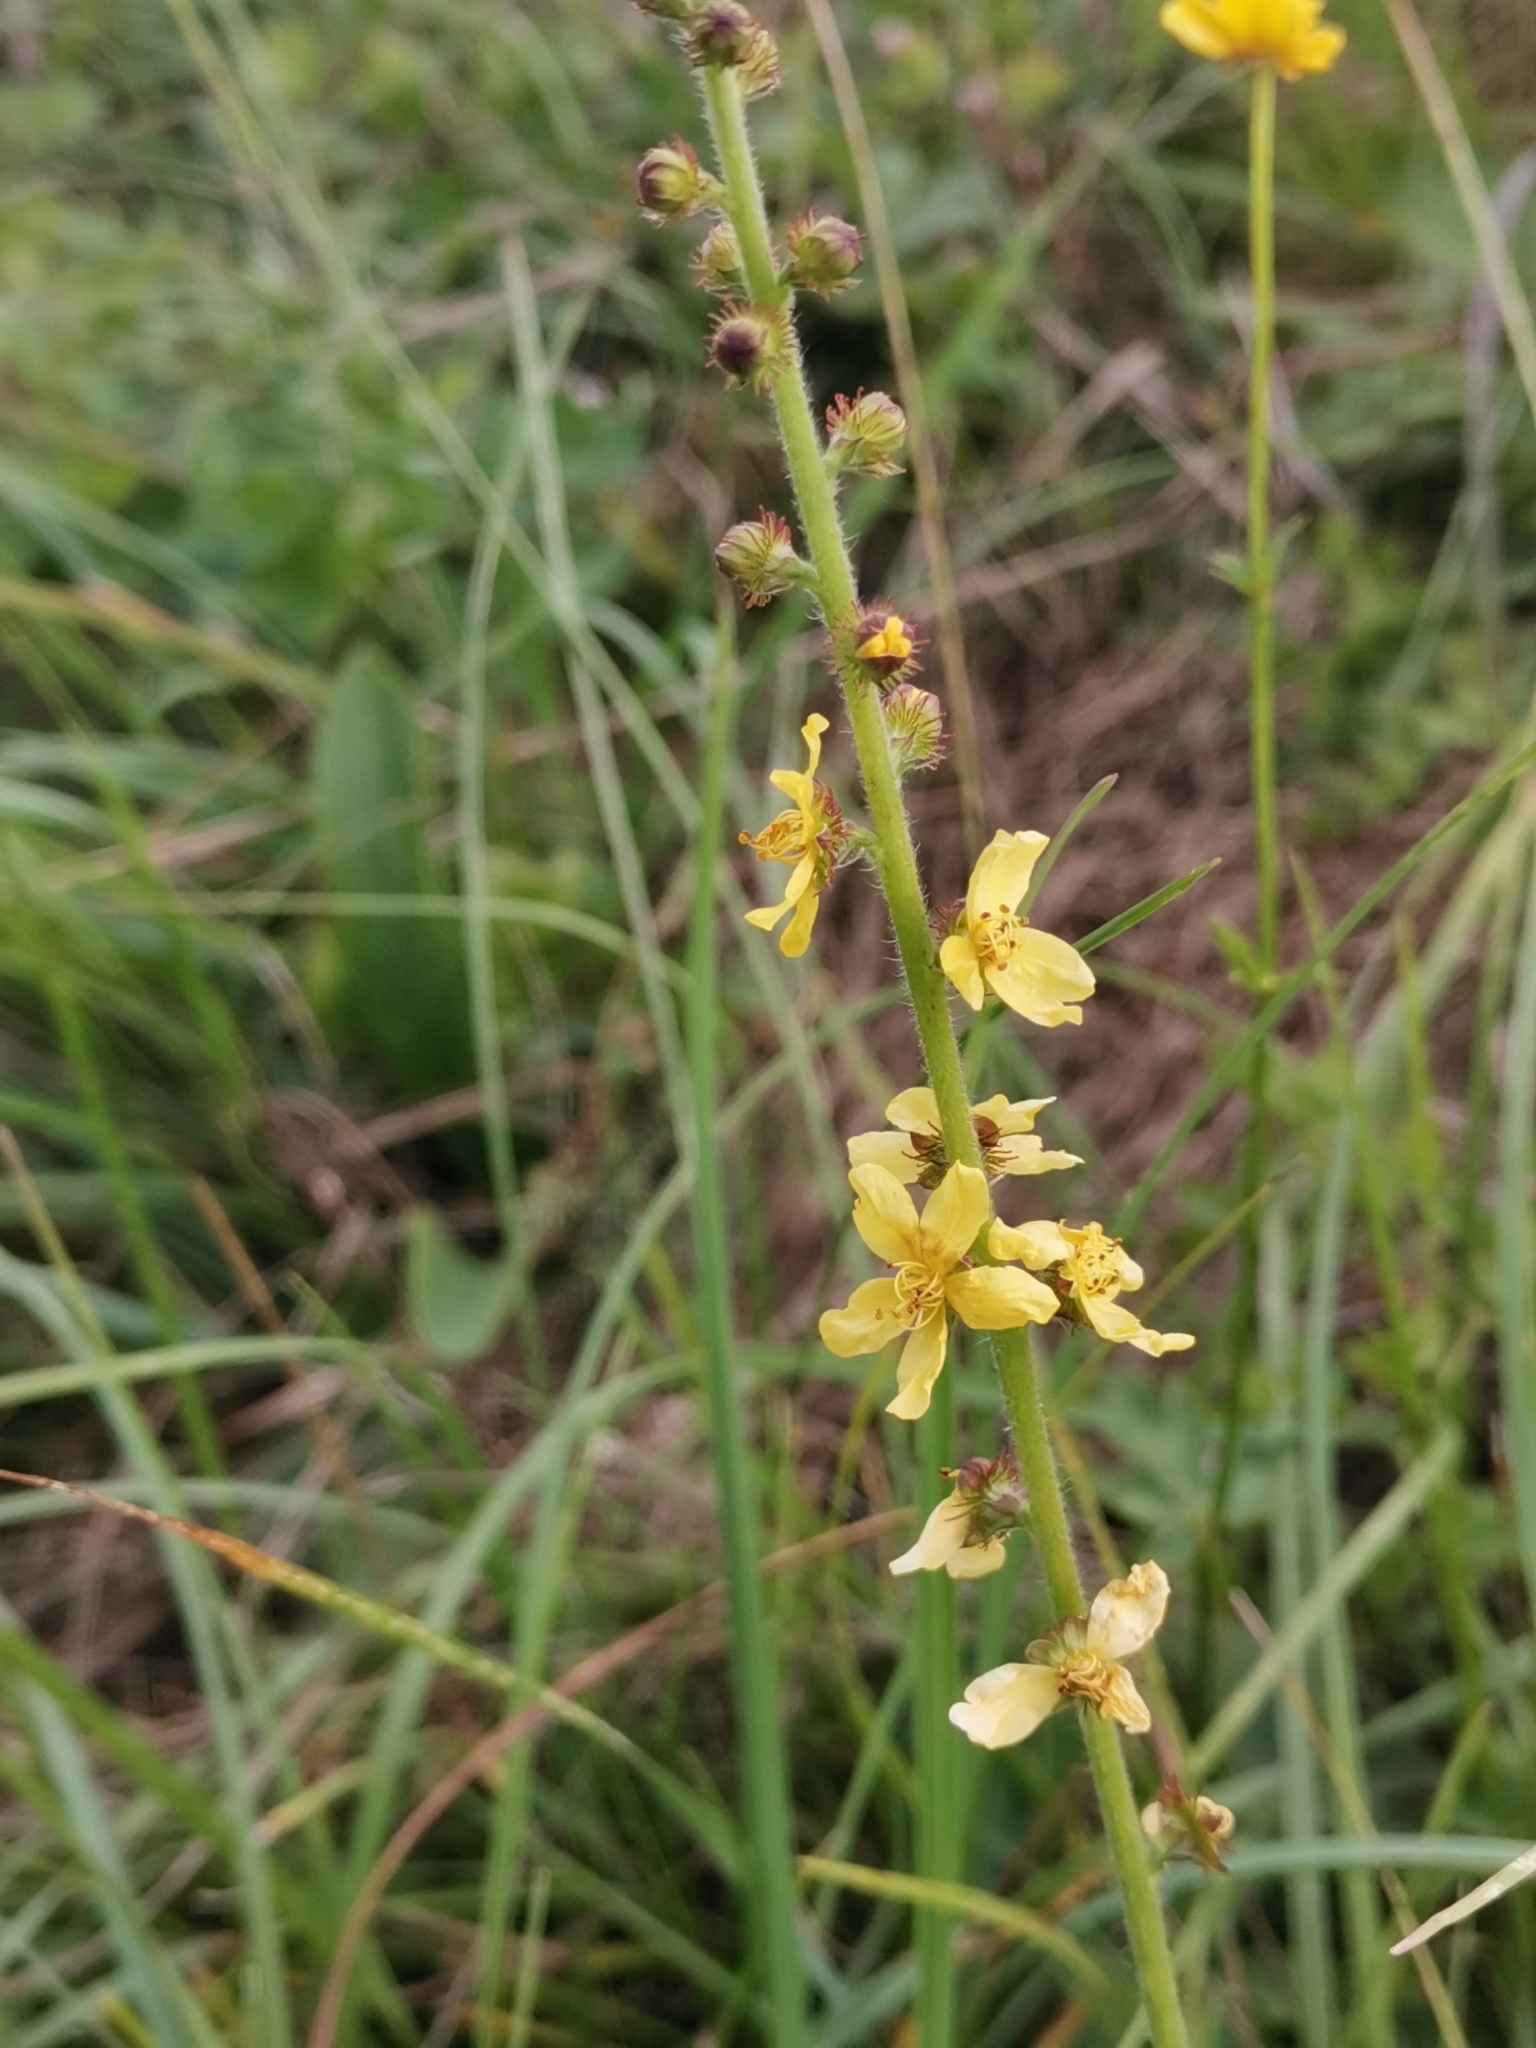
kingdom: Plantae
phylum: Tracheophyta
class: Magnoliopsida
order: Rosales
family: Rosaceae
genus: Agrimonia
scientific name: Agrimonia eupatoria
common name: Agrimony
